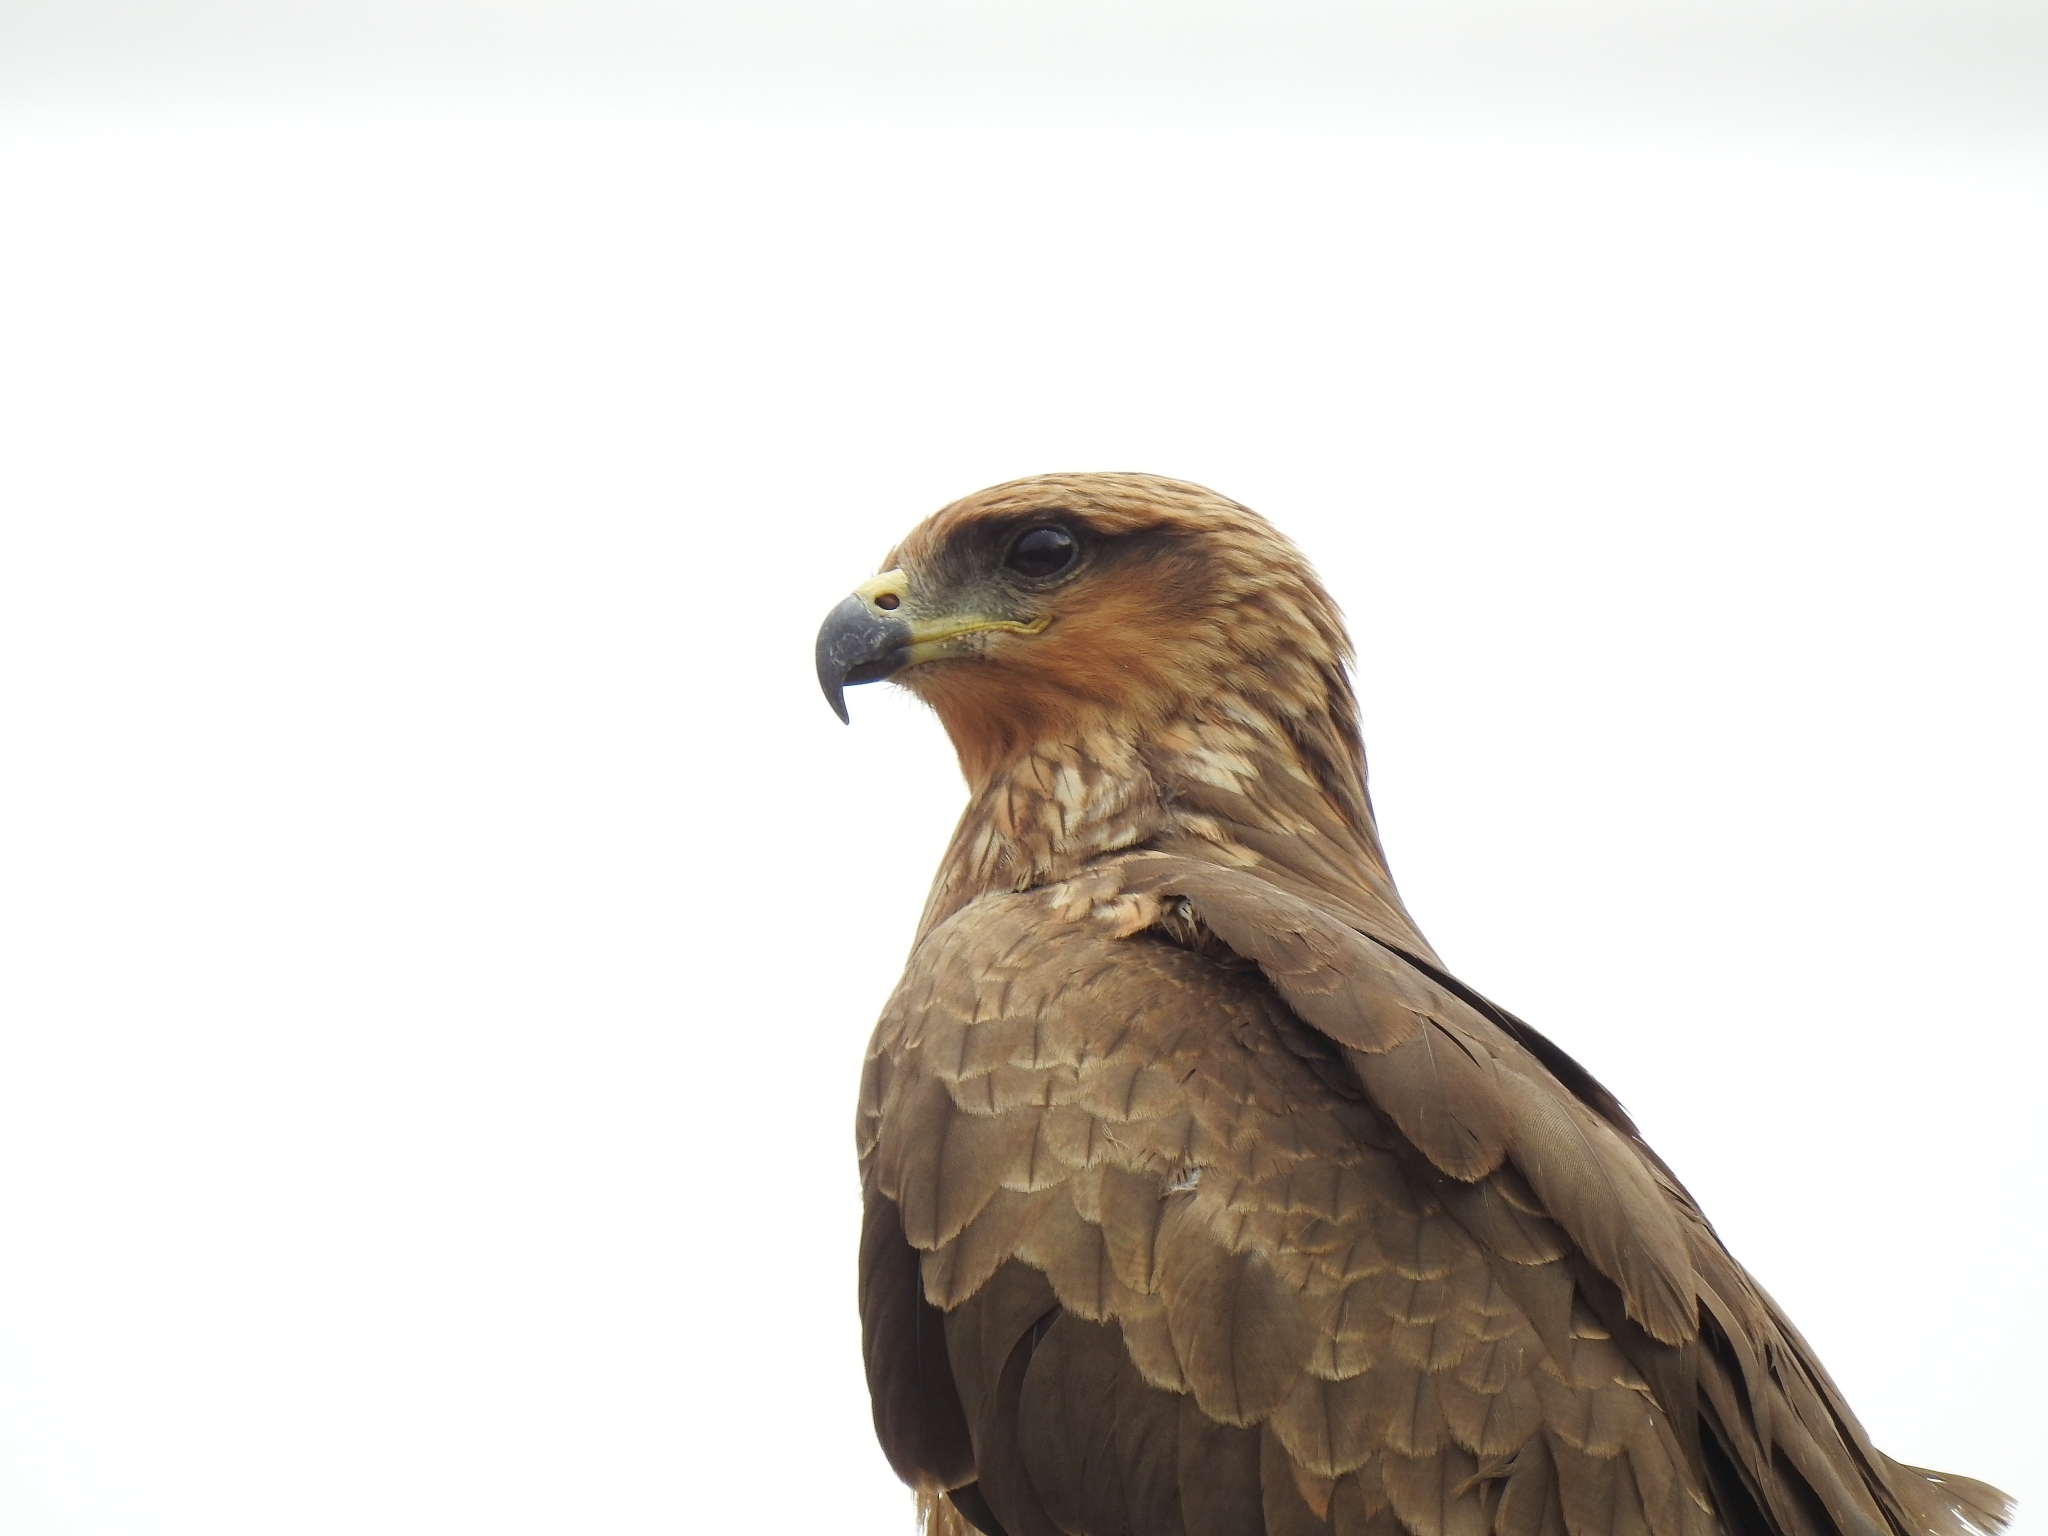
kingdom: Animalia
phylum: Chordata
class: Aves
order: Accipitriformes
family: Accipitridae
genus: Milvus
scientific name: Milvus migrans
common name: Black kite
